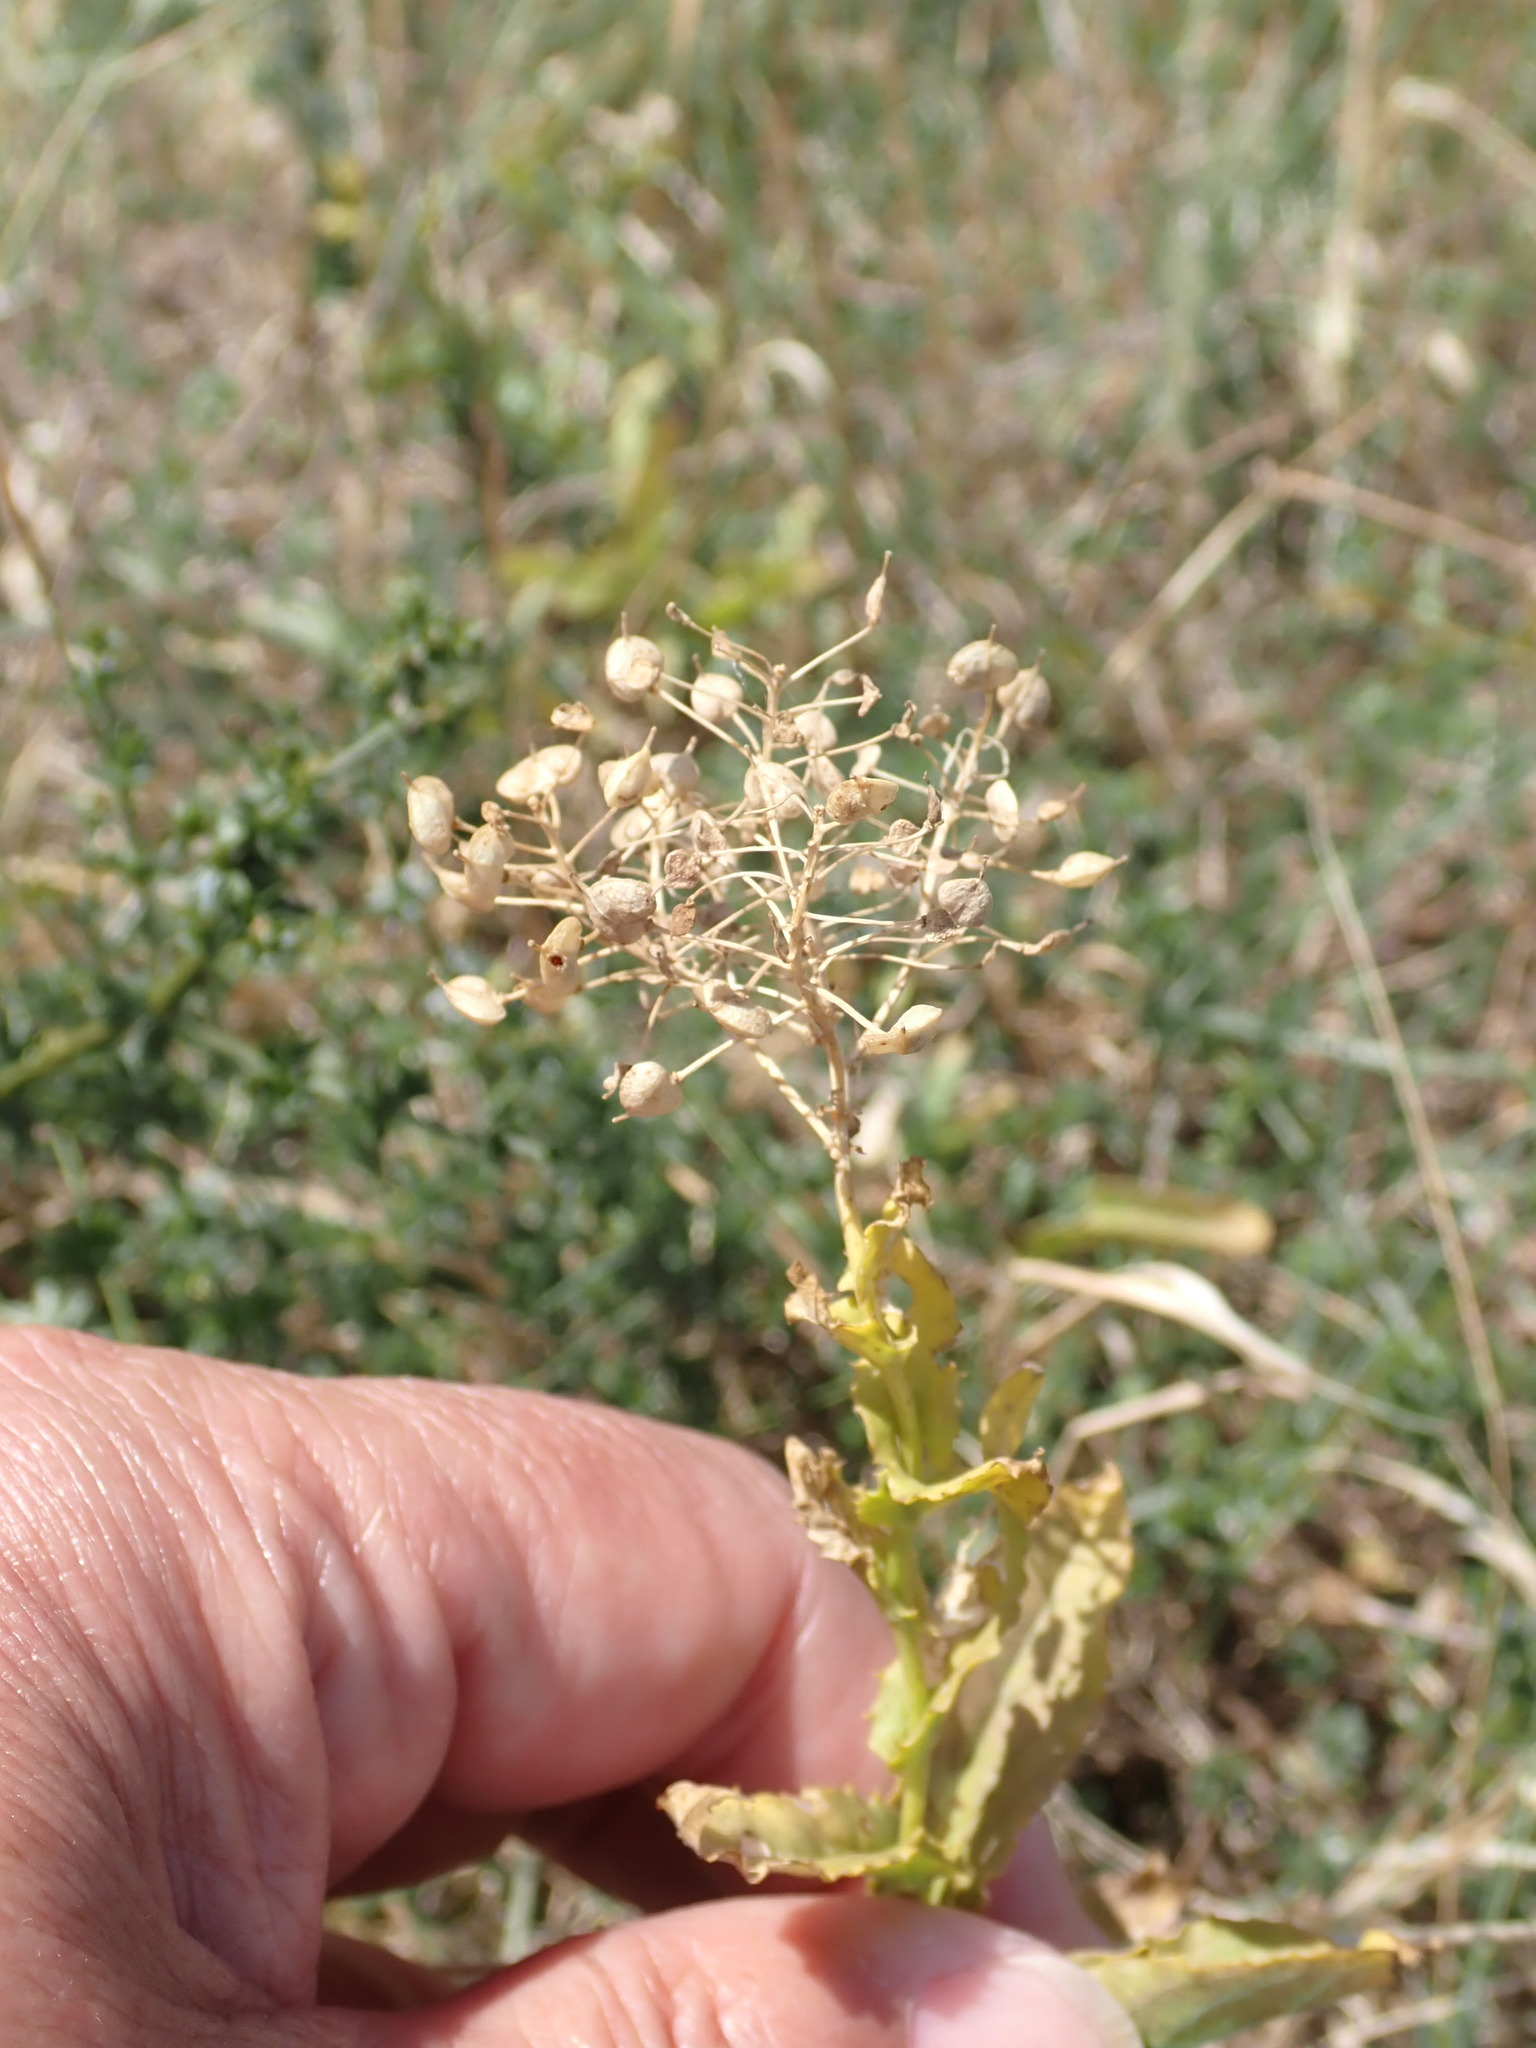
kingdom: Plantae
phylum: Tracheophyta
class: Magnoliopsida
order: Brassicales
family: Brassicaceae
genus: Lepidium
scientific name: Lepidium draba
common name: Hoary cress
